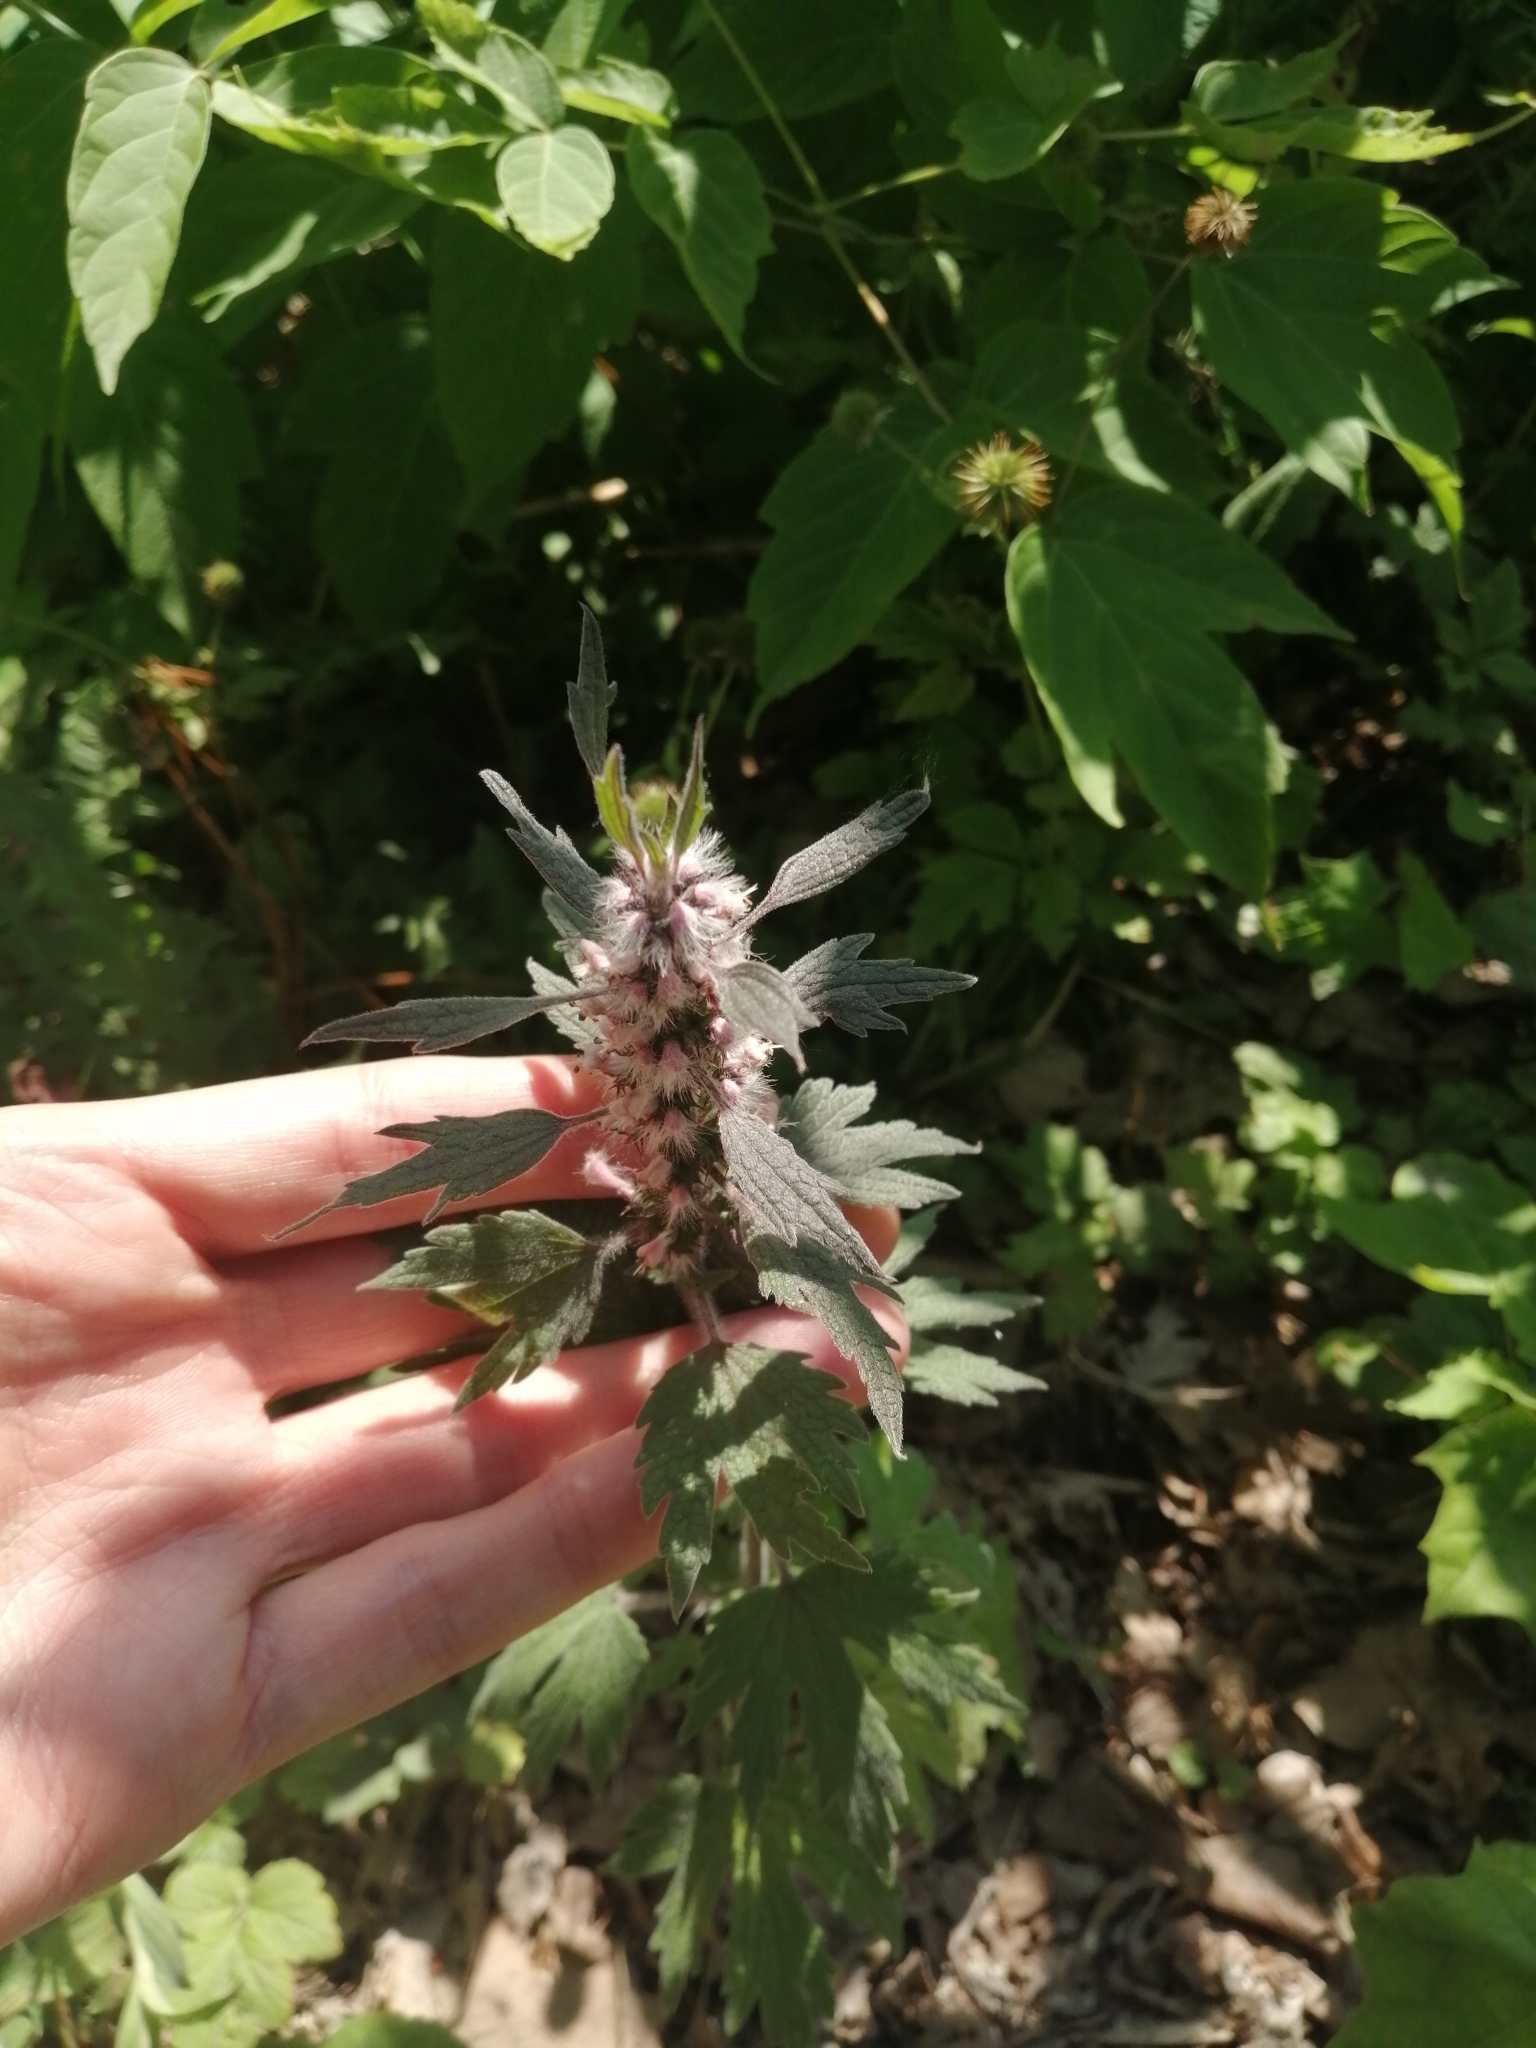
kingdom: Plantae
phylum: Tracheophyta
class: Magnoliopsida
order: Lamiales
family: Lamiaceae
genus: Leonurus
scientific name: Leonurus quinquelobatus
